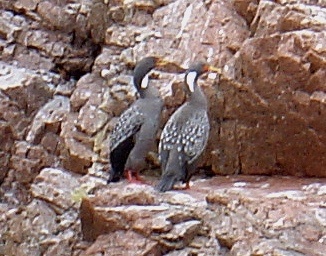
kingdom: Animalia
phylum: Chordata
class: Aves
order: Suliformes
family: Phalacrocoracidae
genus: Phalacrocorax
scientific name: Phalacrocorax gaimardi
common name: Red-legged cormorant
